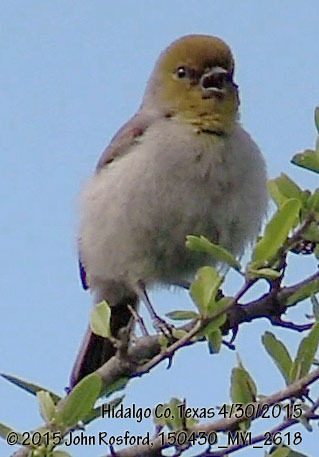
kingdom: Animalia
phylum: Chordata
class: Aves
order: Passeriformes
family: Remizidae
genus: Auriparus
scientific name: Auriparus flaviceps
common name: Verdin
